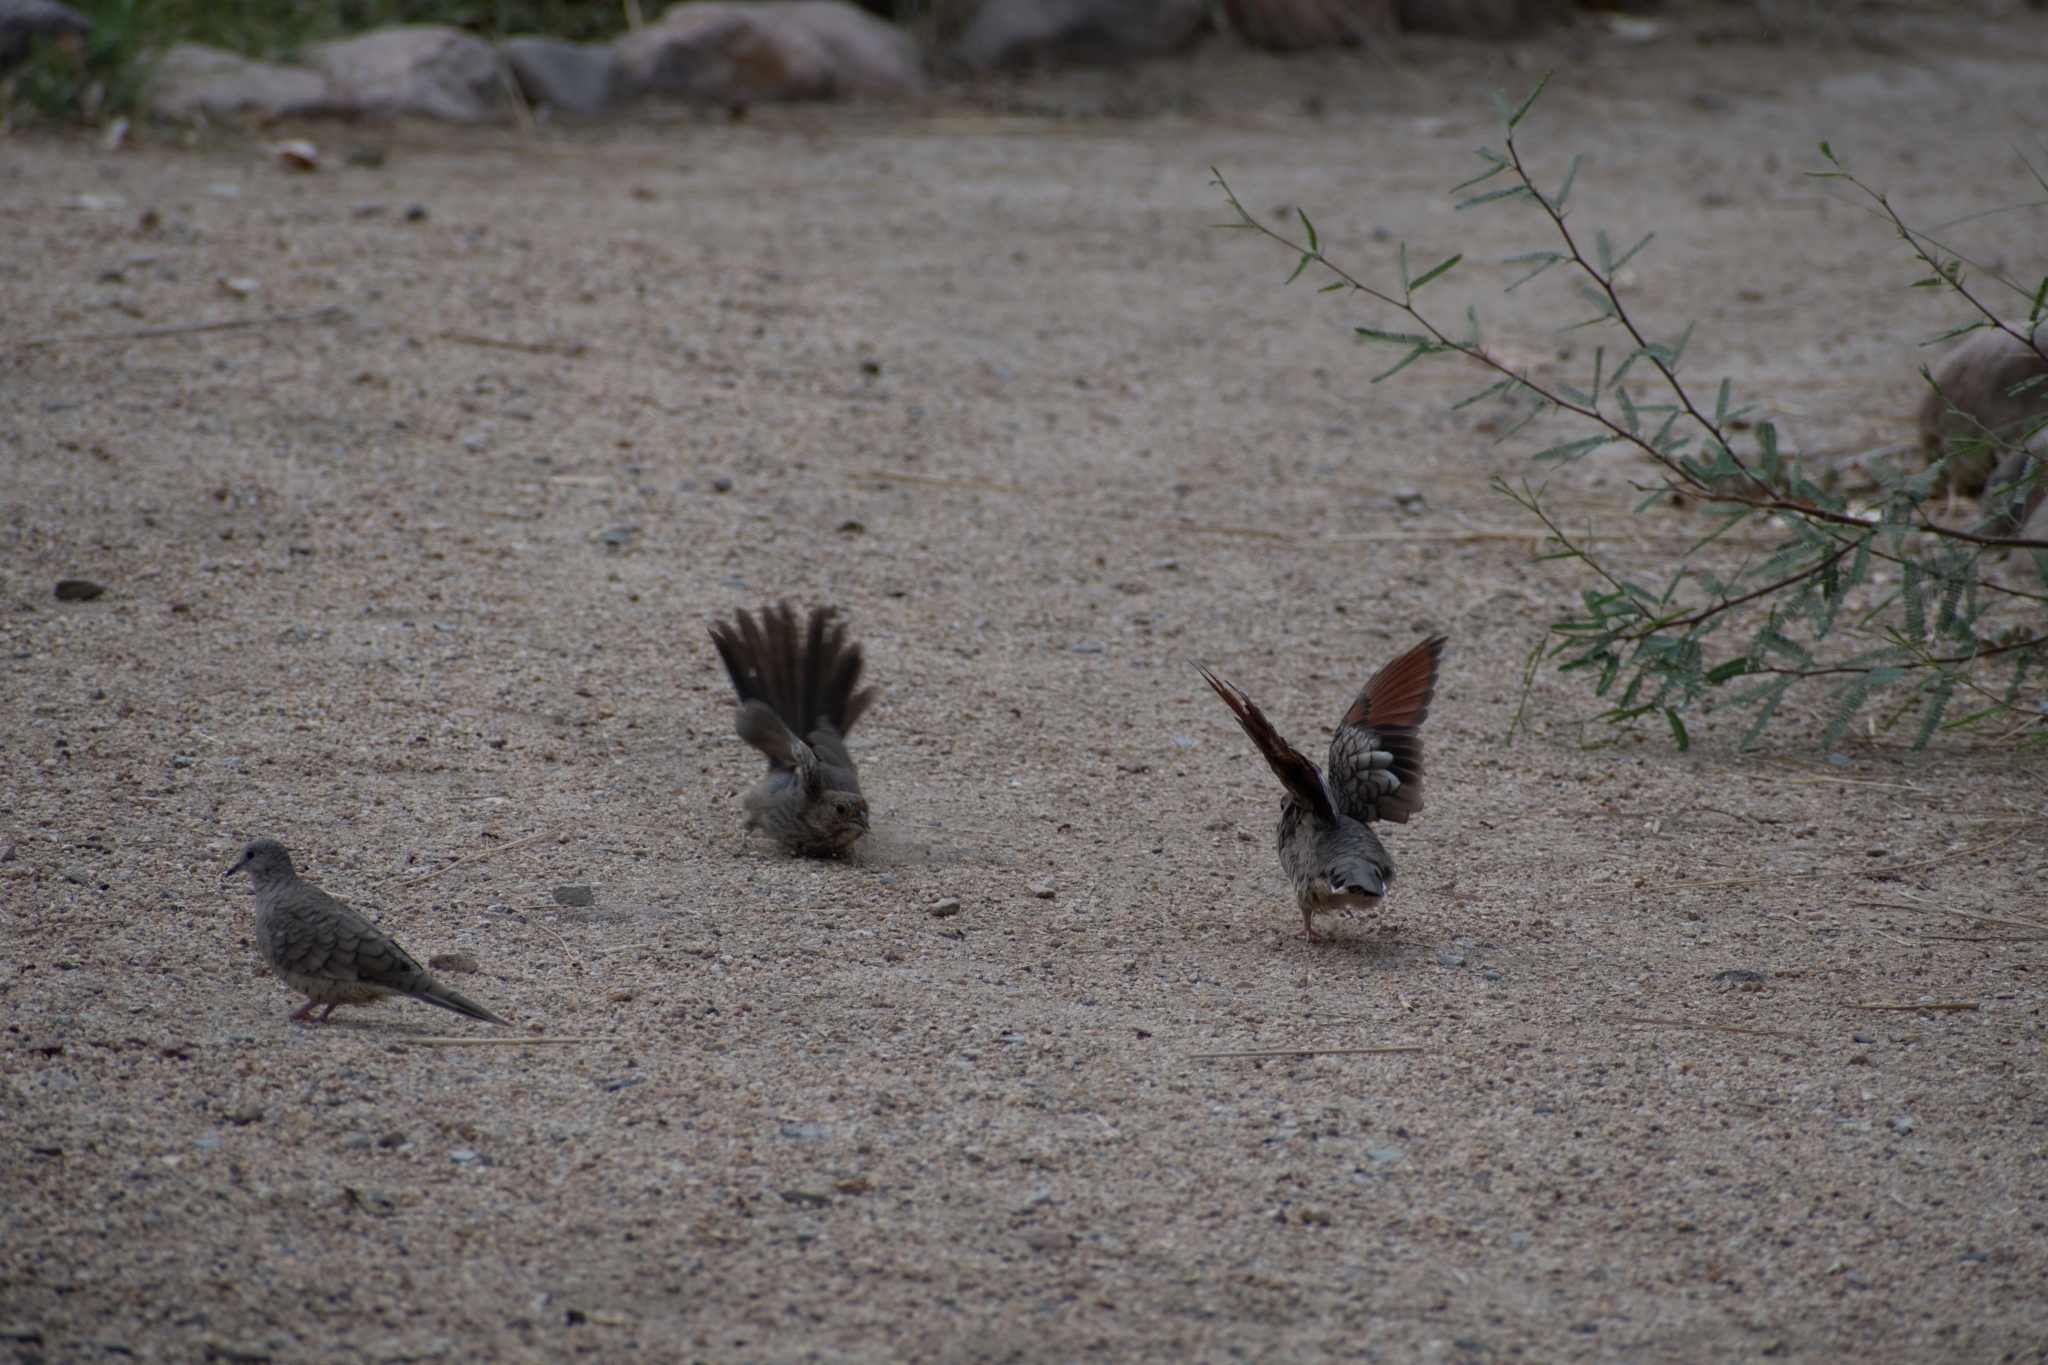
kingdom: Animalia
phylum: Chordata
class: Aves
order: Columbiformes
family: Columbidae
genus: Columbina
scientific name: Columbina inca
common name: Inca dove
